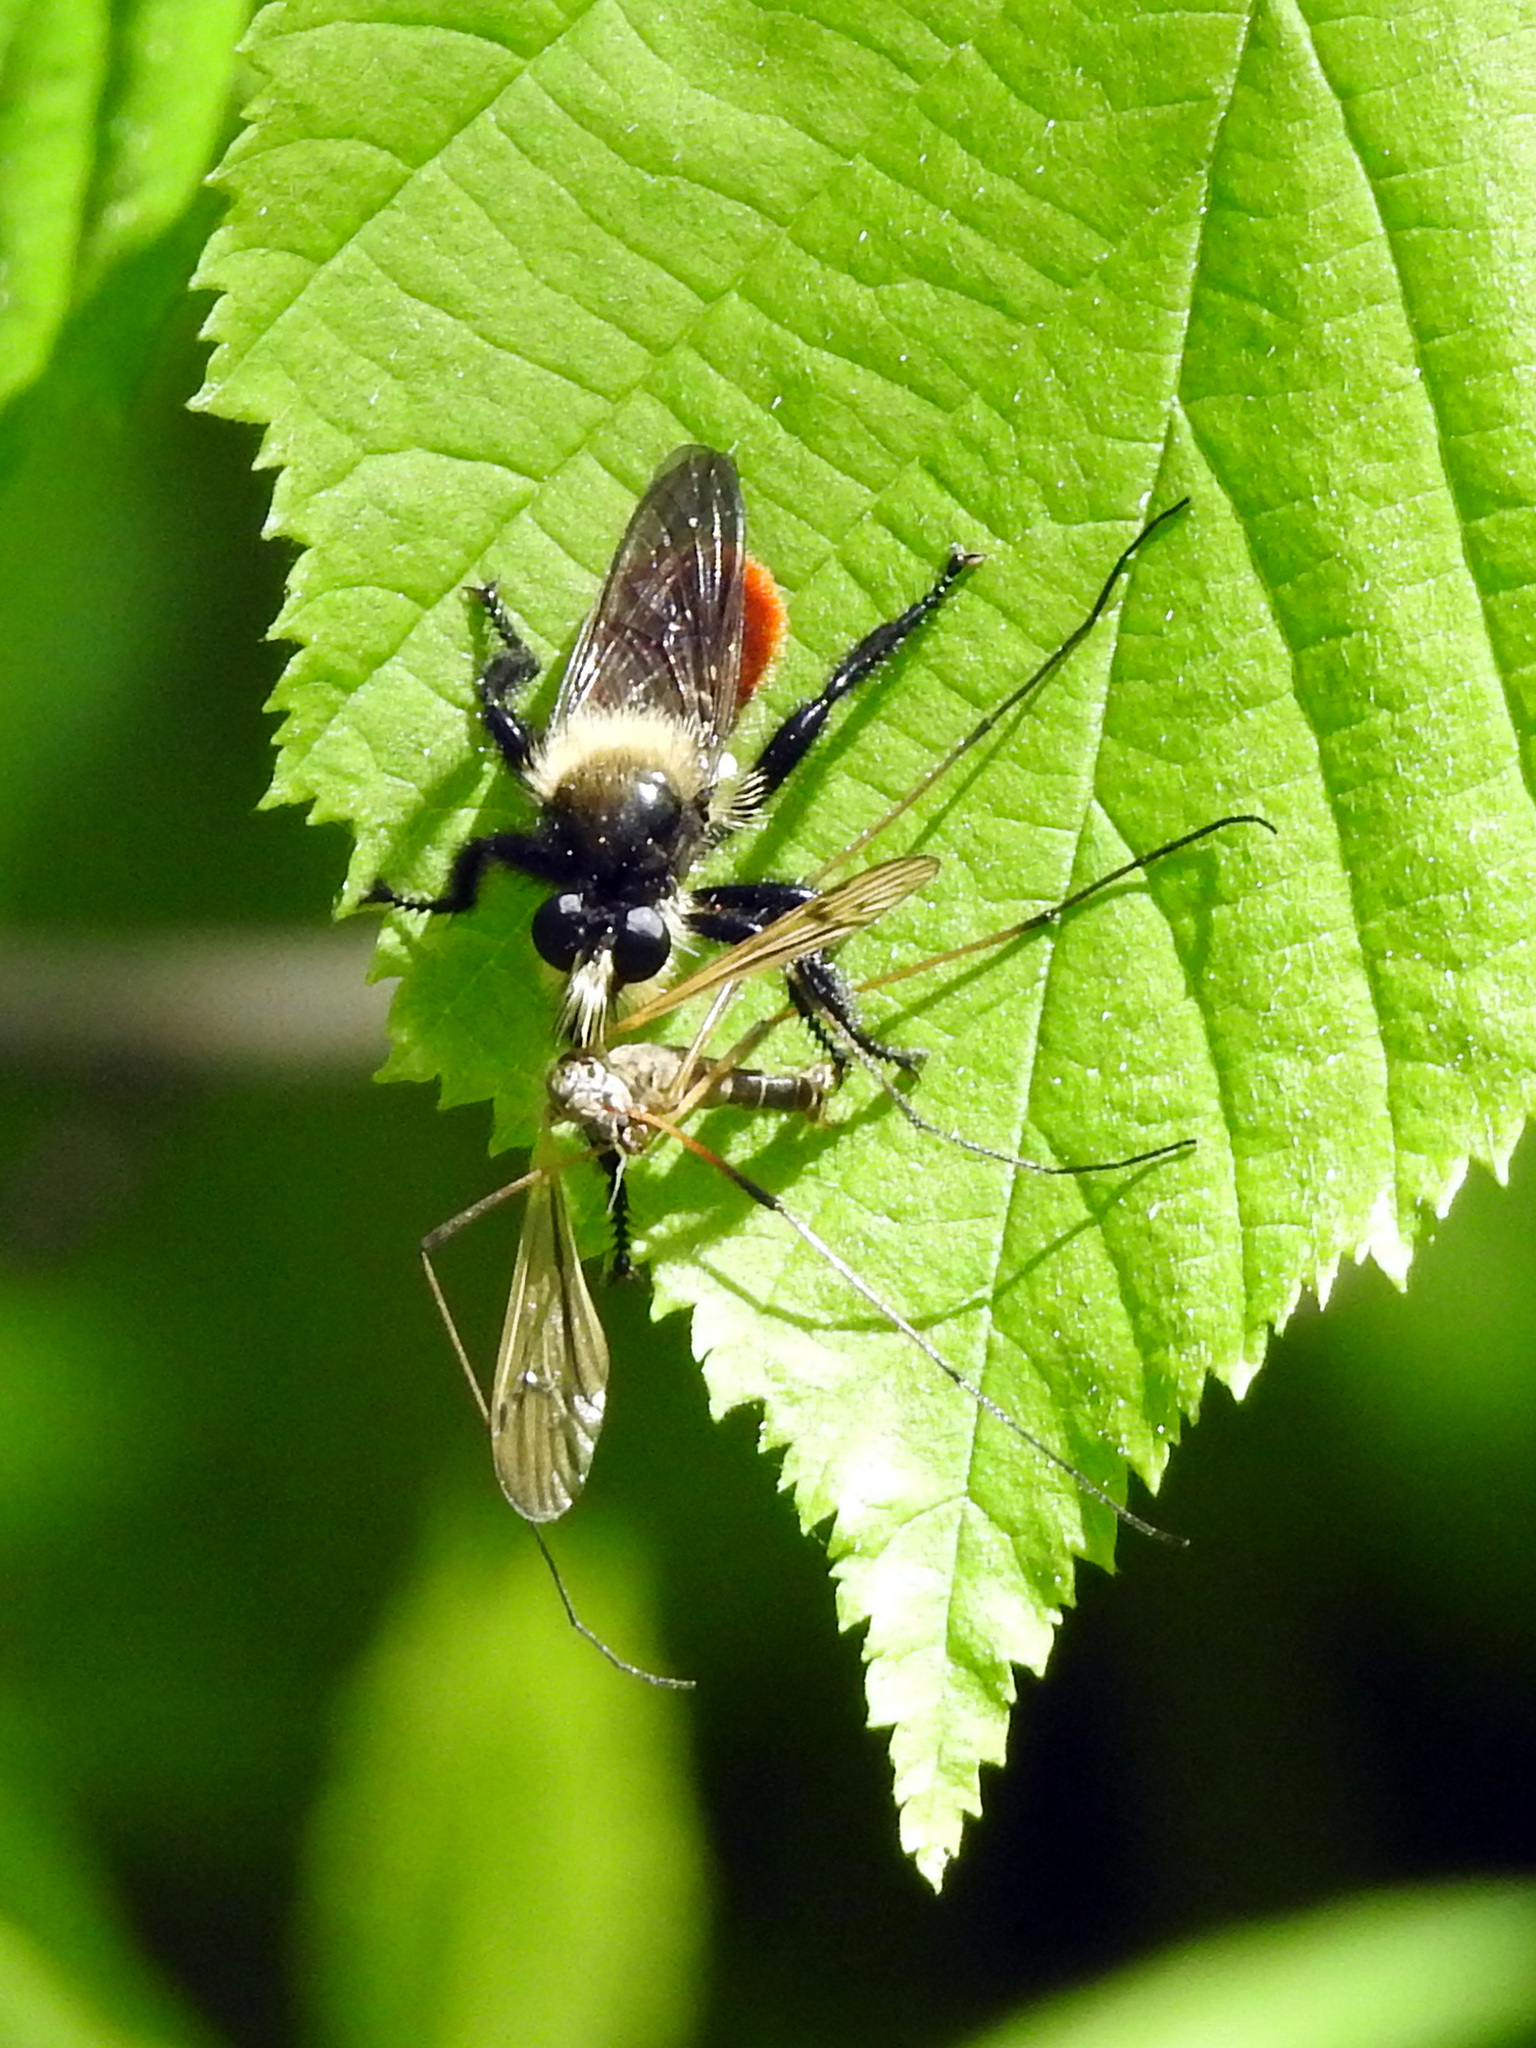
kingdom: Animalia
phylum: Arthropoda
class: Insecta
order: Diptera
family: Asilidae
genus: Laphria
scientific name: Laphria janus
